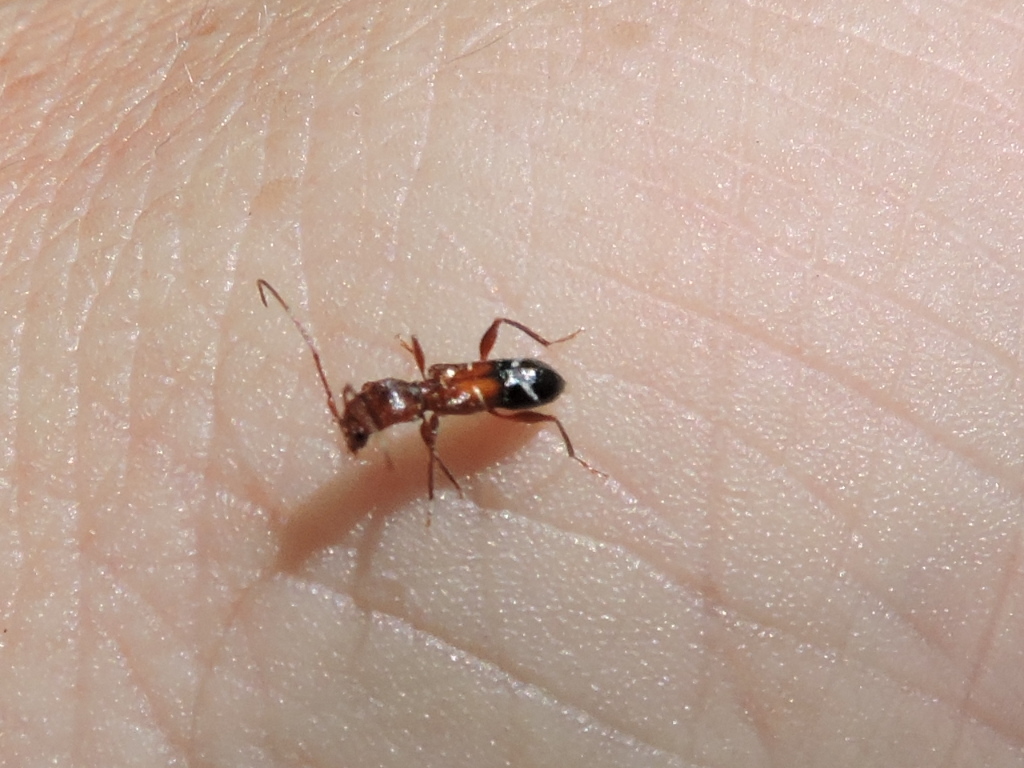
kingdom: Animalia
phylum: Arthropoda
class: Insecta
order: Coleoptera
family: Cerambycidae
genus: Euderces
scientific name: Euderces pini
